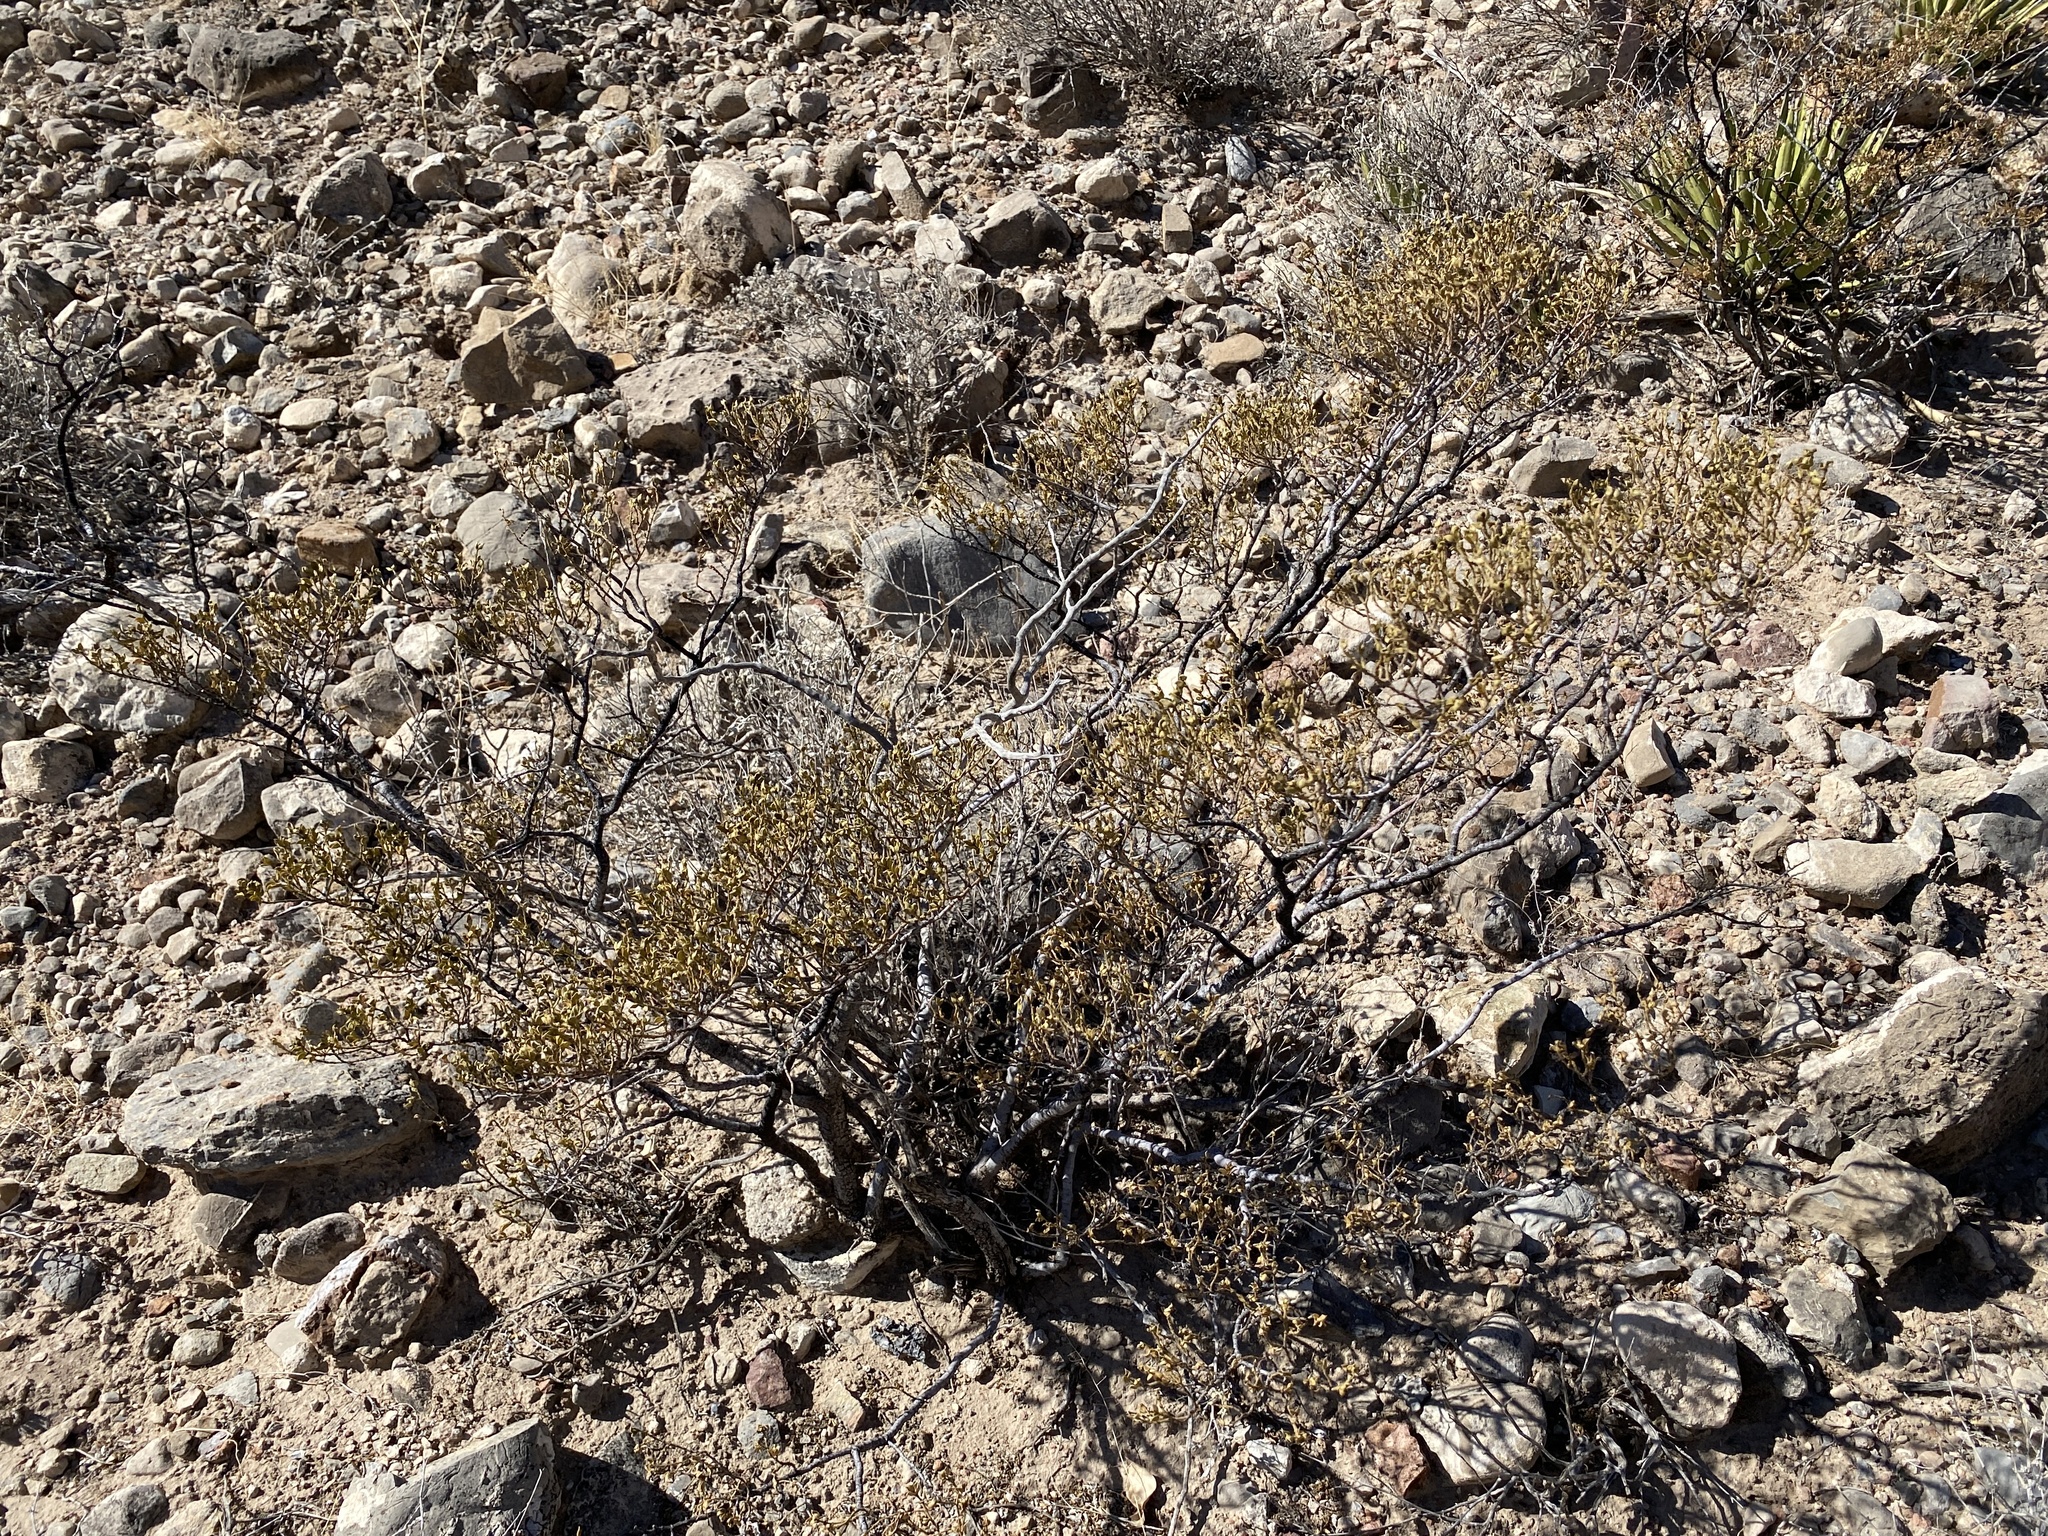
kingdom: Plantae
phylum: Tracheophyta
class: Magnoliopsida
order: Zygophyllales
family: Zygophyllaceae
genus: Larrea
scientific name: Larrea tridentata
